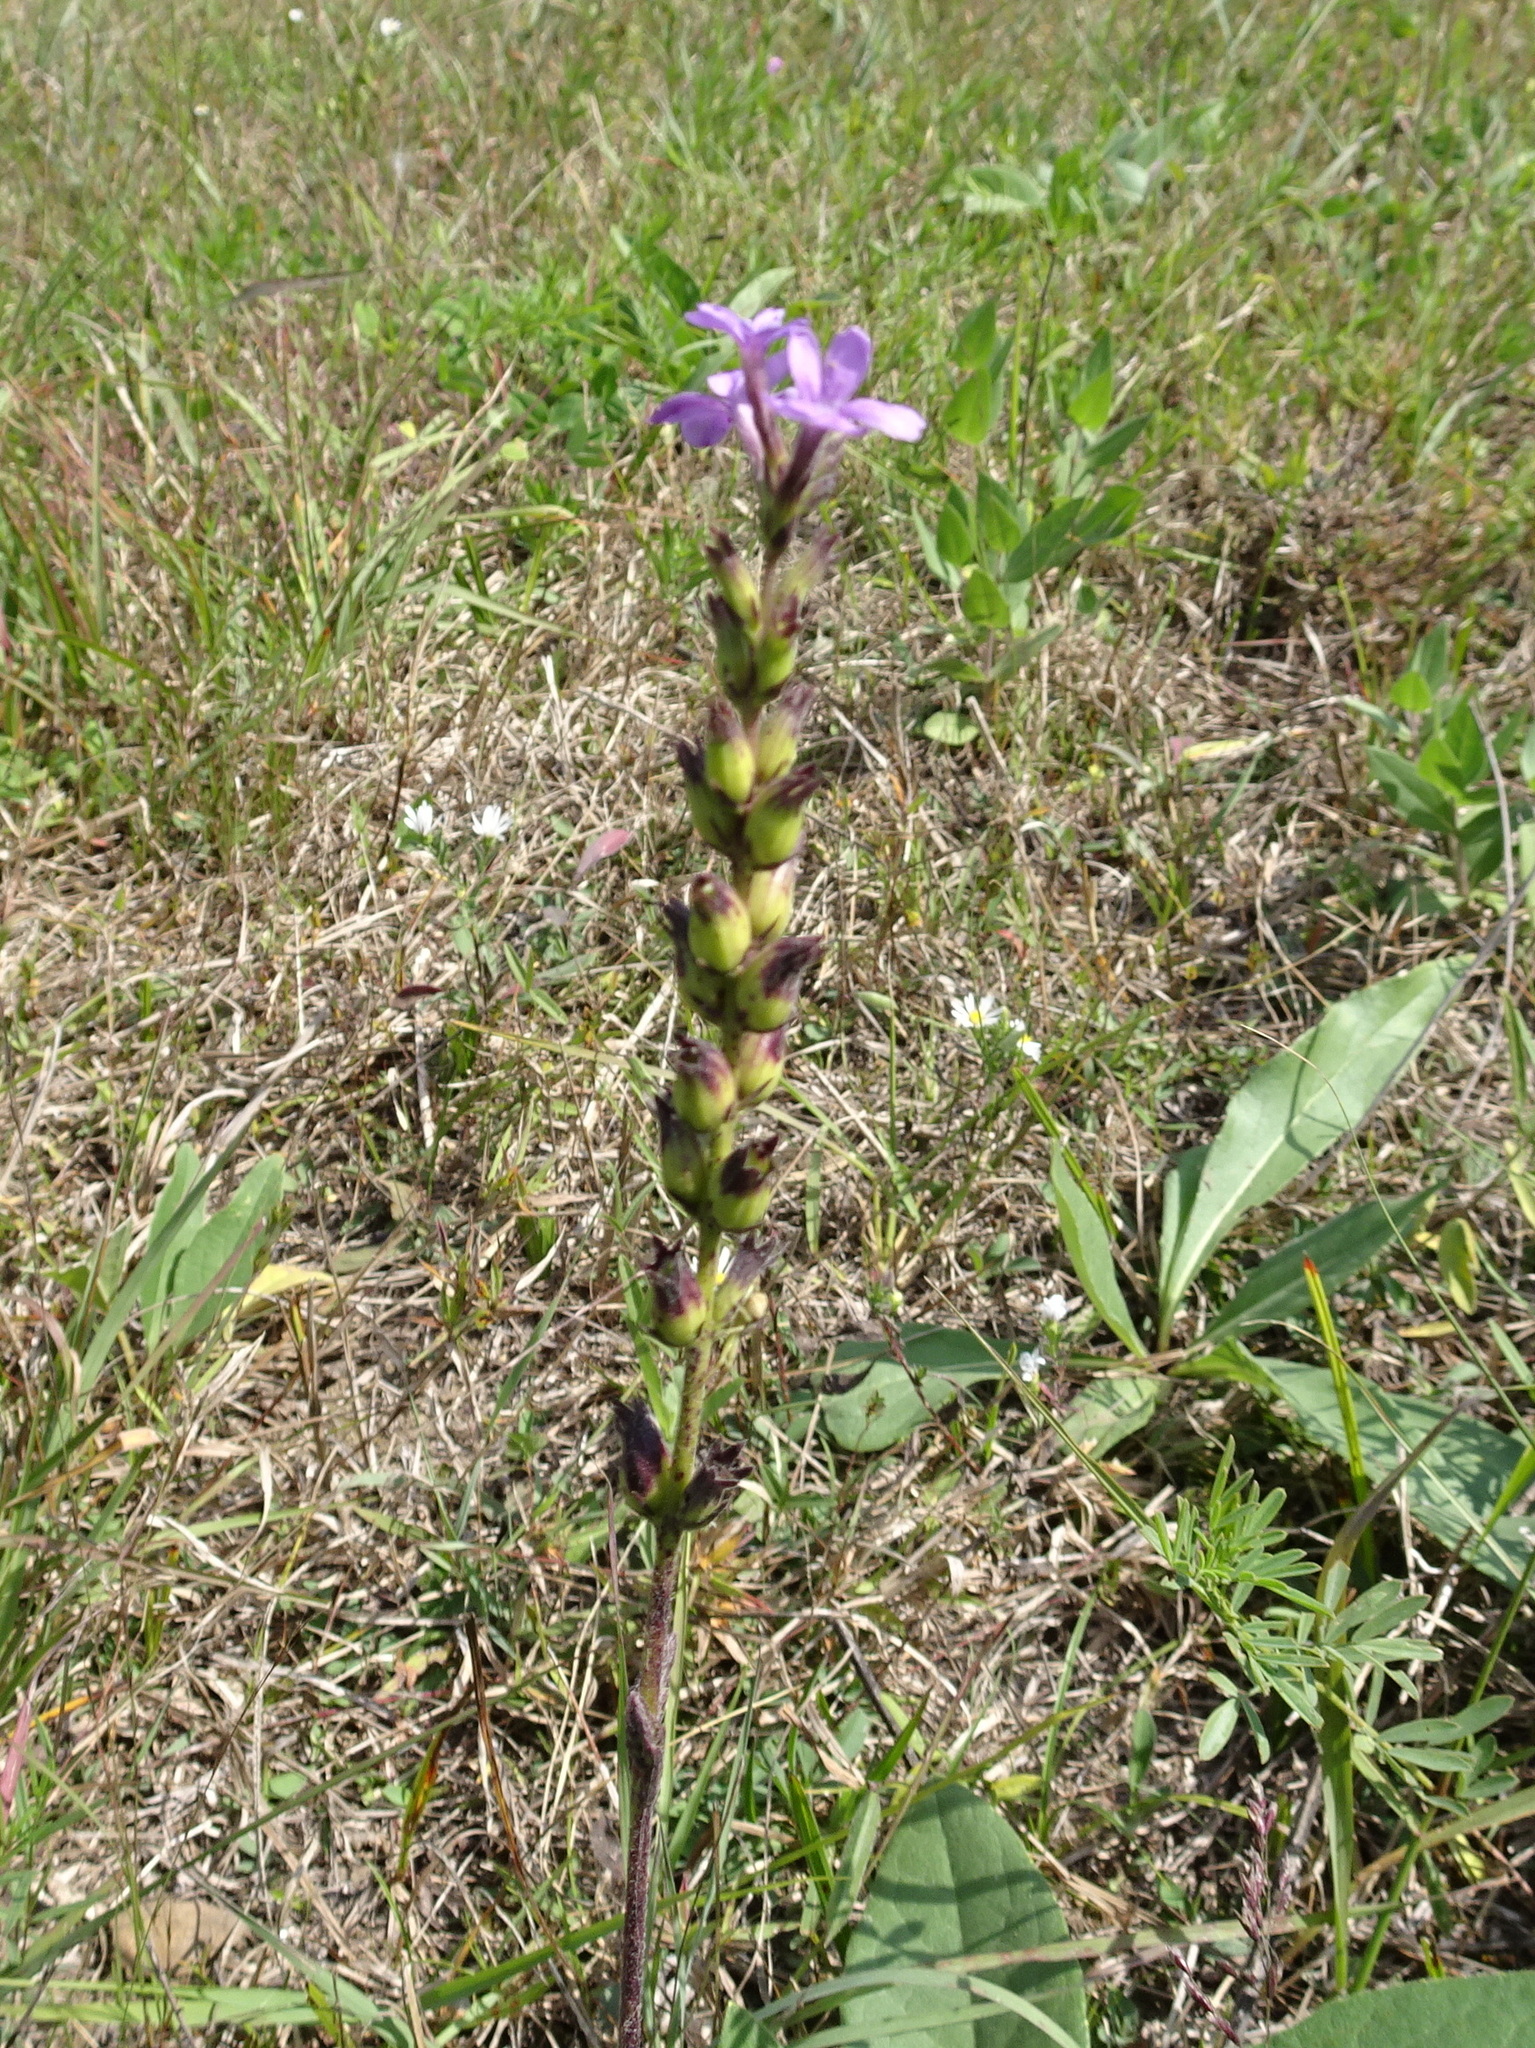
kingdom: Plantae
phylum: Tracheophyta
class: Magnoliopsida
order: Lamiales
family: Orobanchaceae
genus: Buchnera
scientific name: Buchnera americana
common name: American bluehearts
